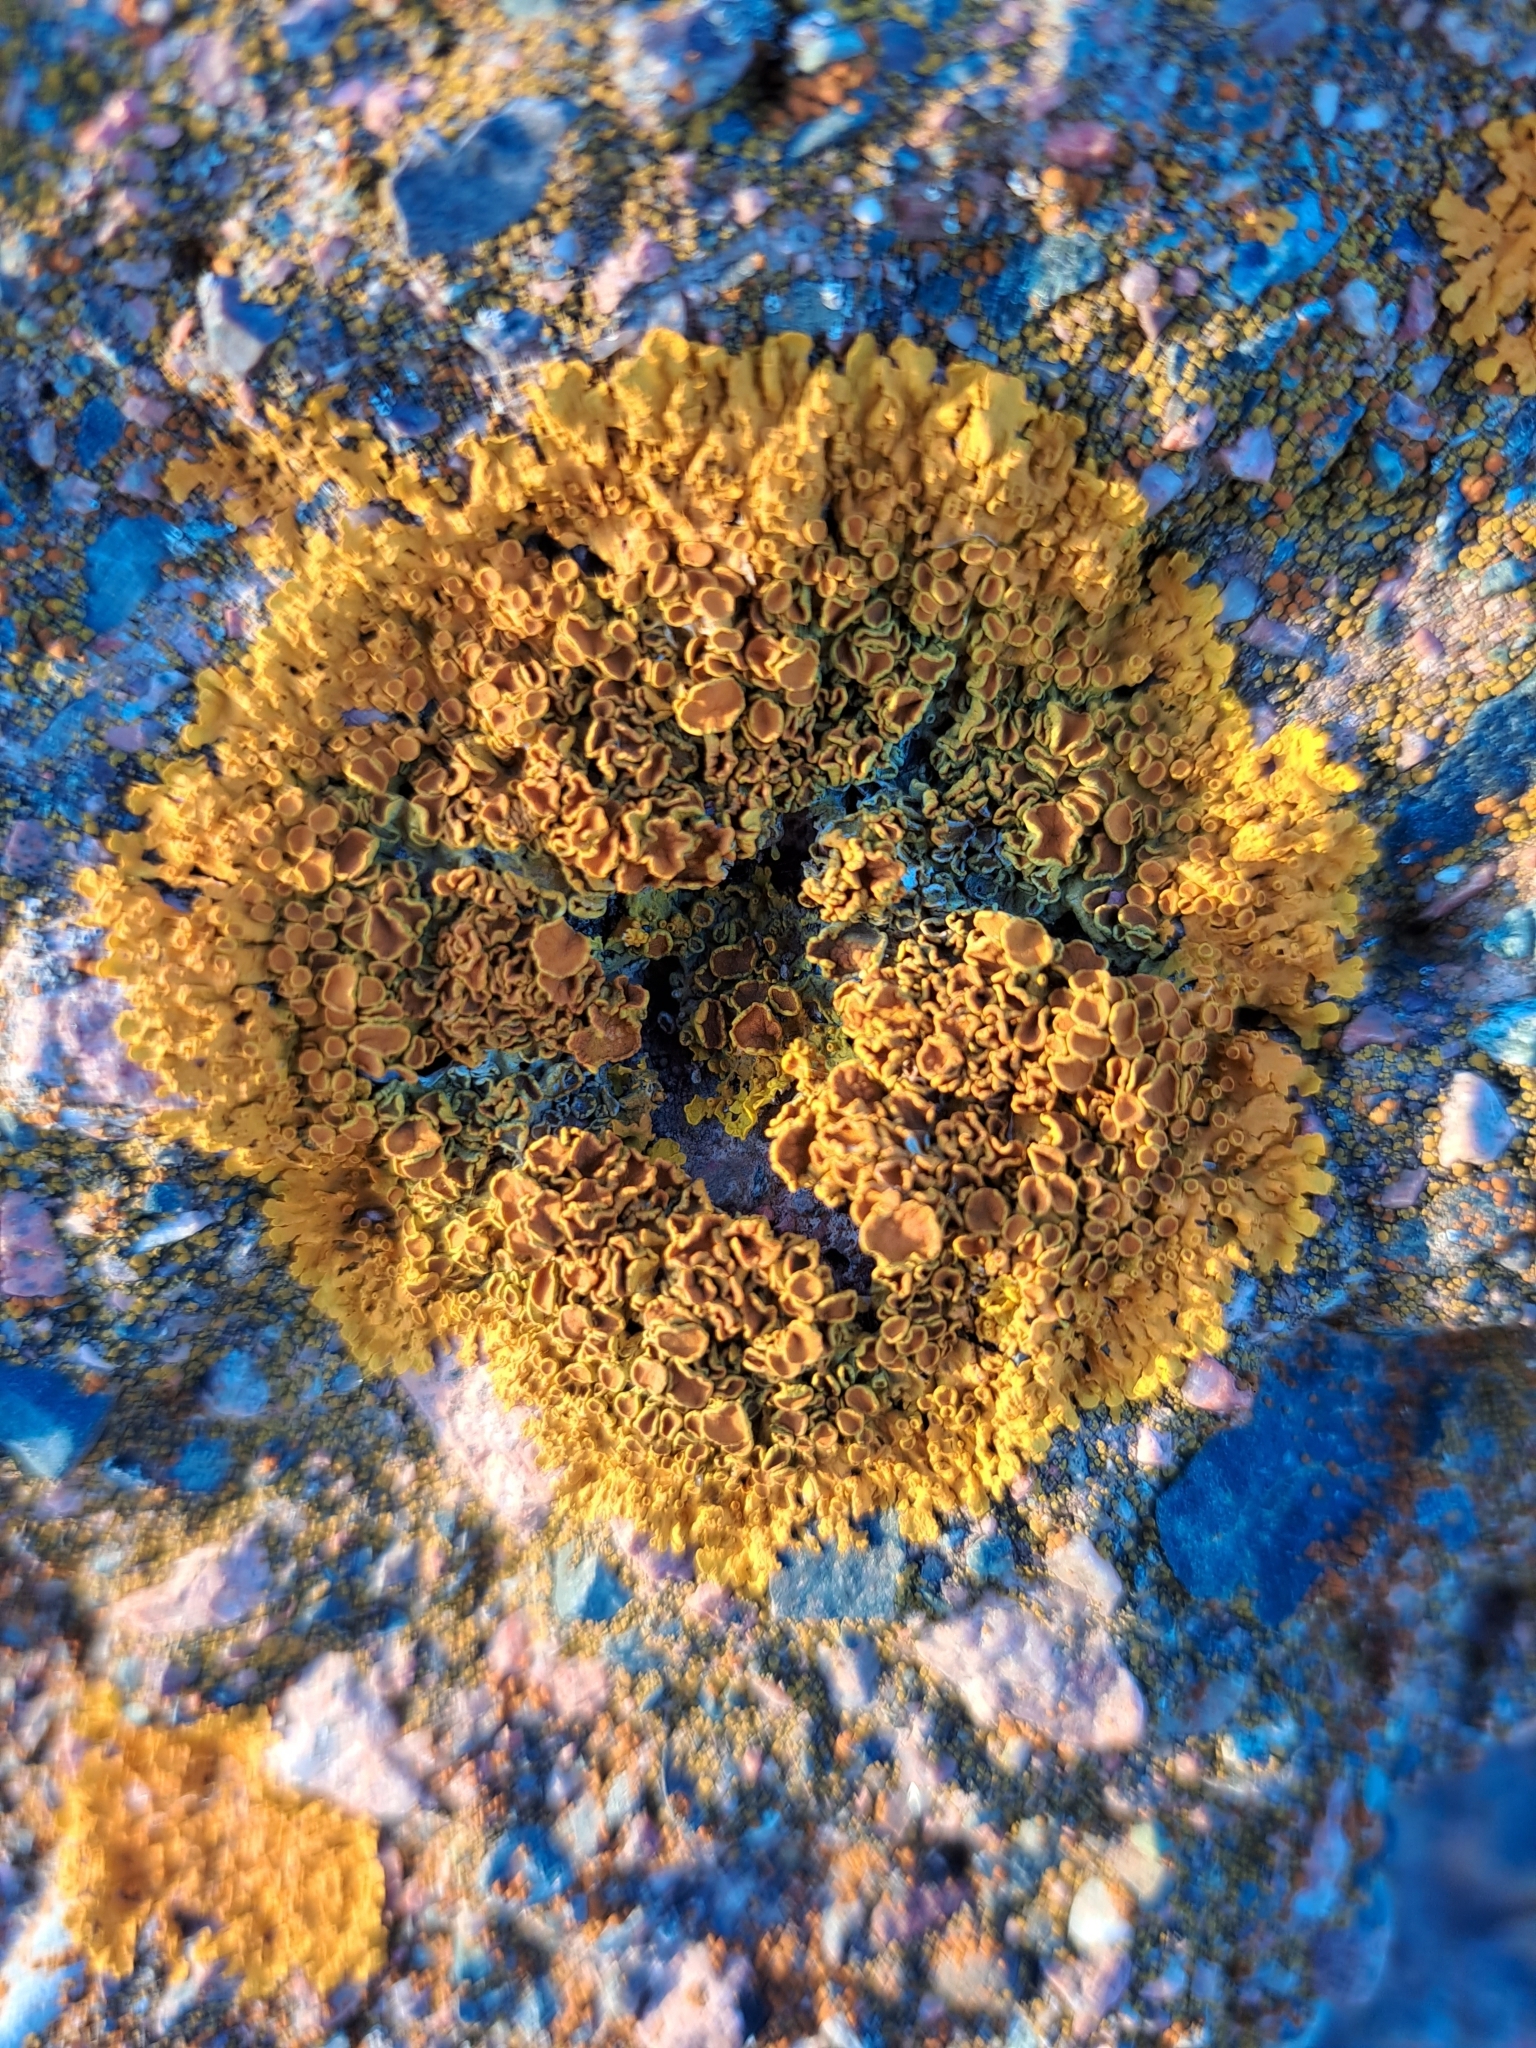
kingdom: Fungi
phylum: Ascomycota
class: Lecanoromycetes
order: Teloschistales
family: Teloschistaceae
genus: Xanthoria
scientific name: Xanthoria parietina
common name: Common orange lichen
